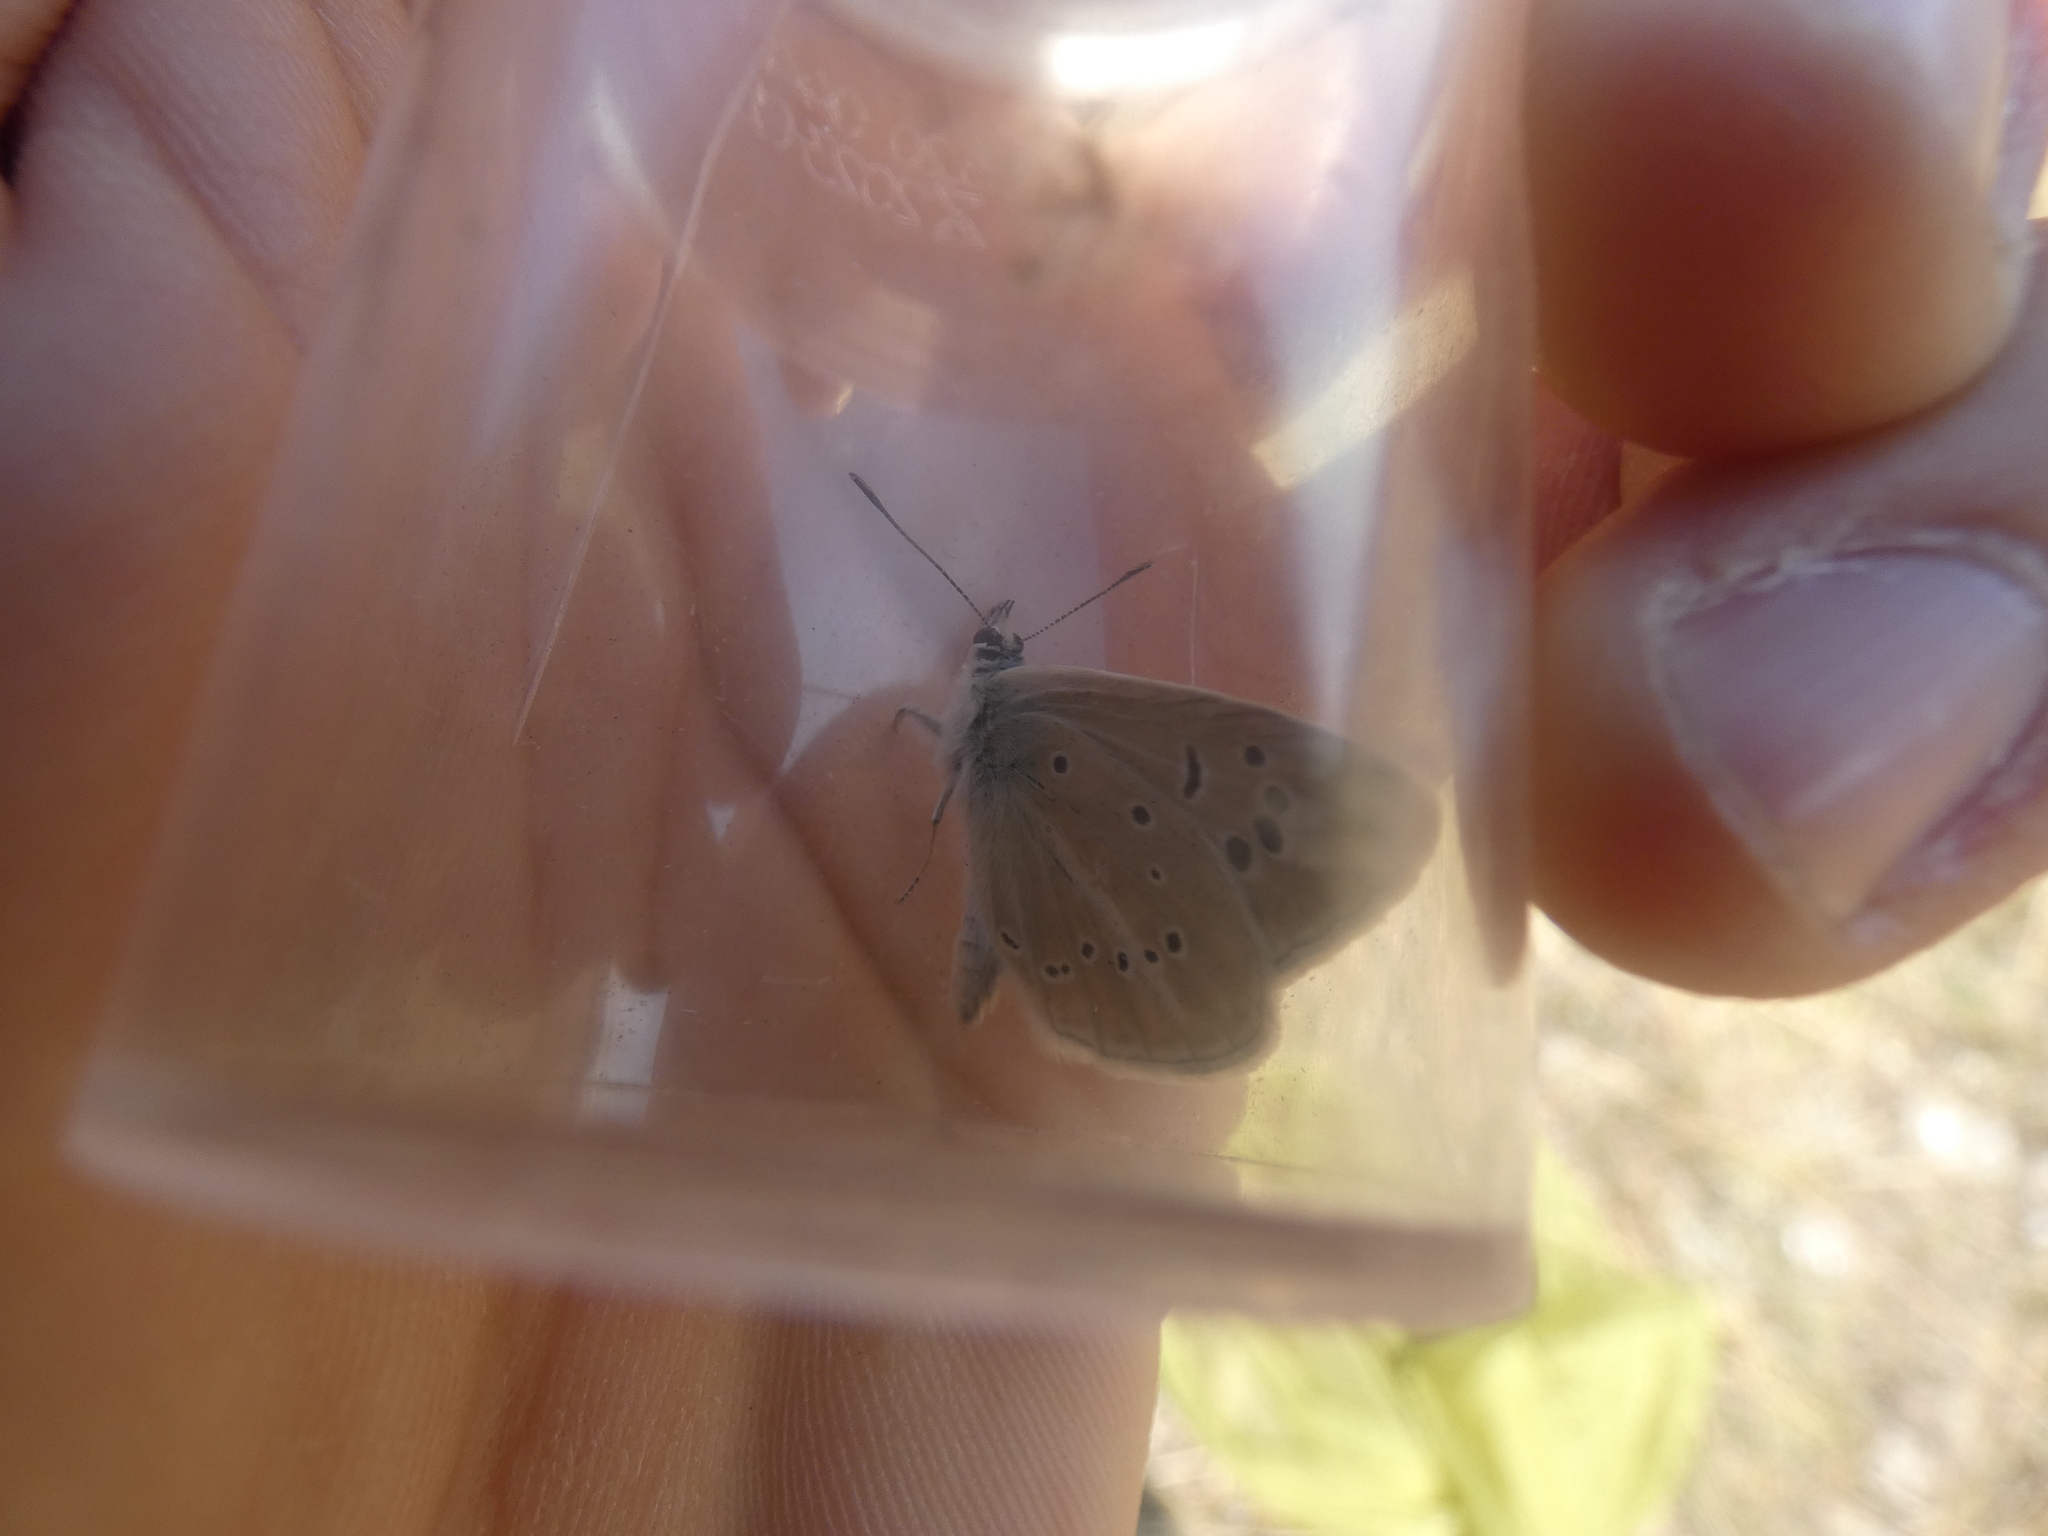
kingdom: Animalia
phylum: Arthropoda
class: Insecta
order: Lepidoptera
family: Lycaenidae
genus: Agrodiaetus
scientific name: Agrodiaetus dolus
